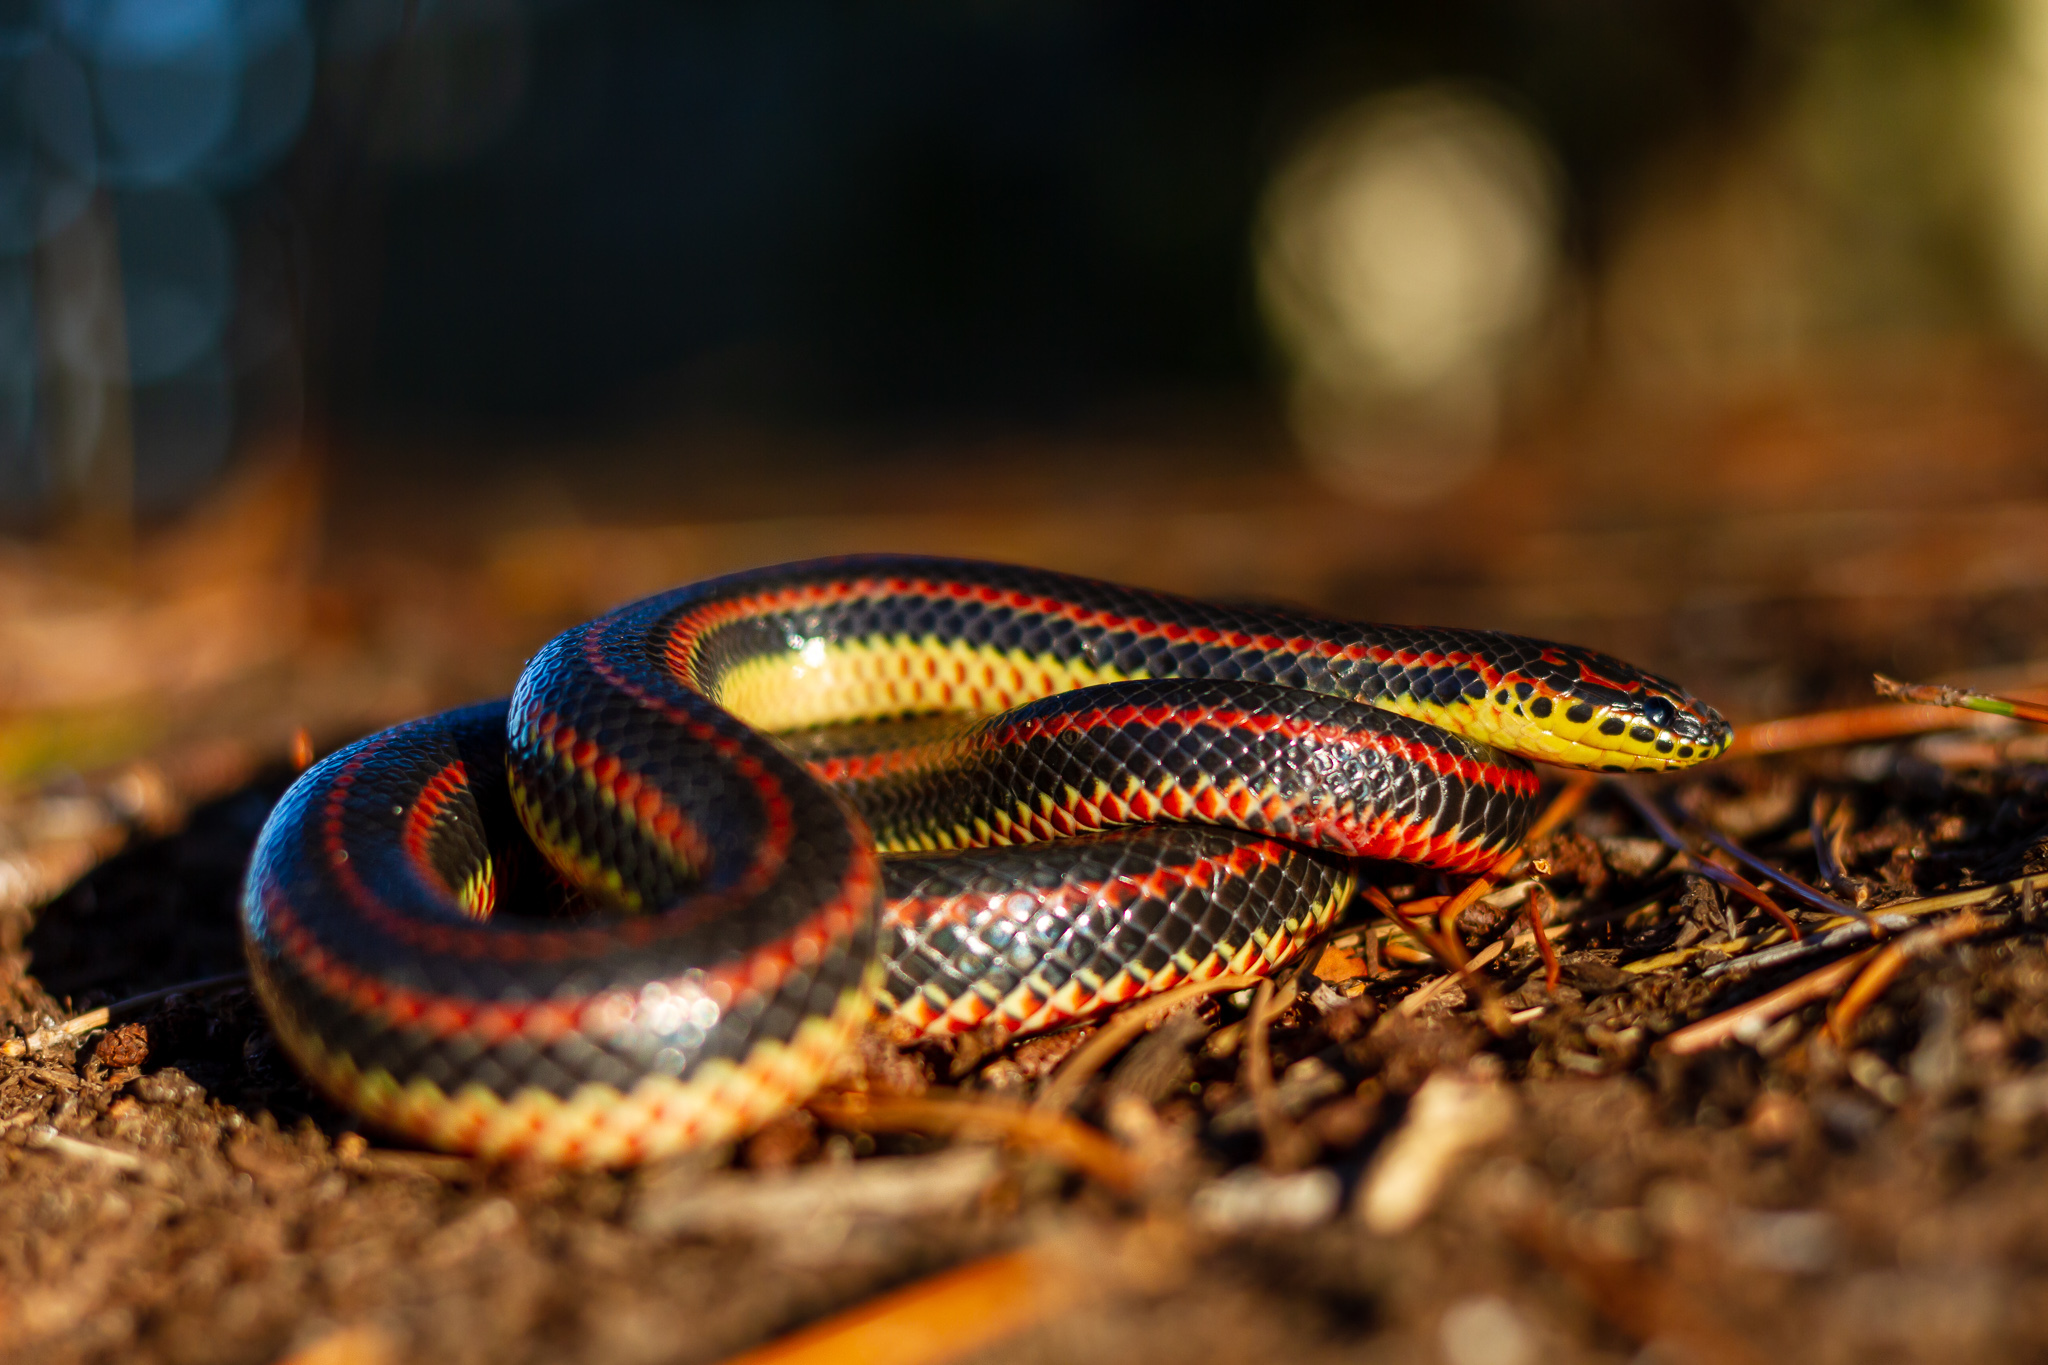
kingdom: Animalia
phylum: Chordata
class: Squamata
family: Colubridae
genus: Farancia
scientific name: Farancia erytrogramma
